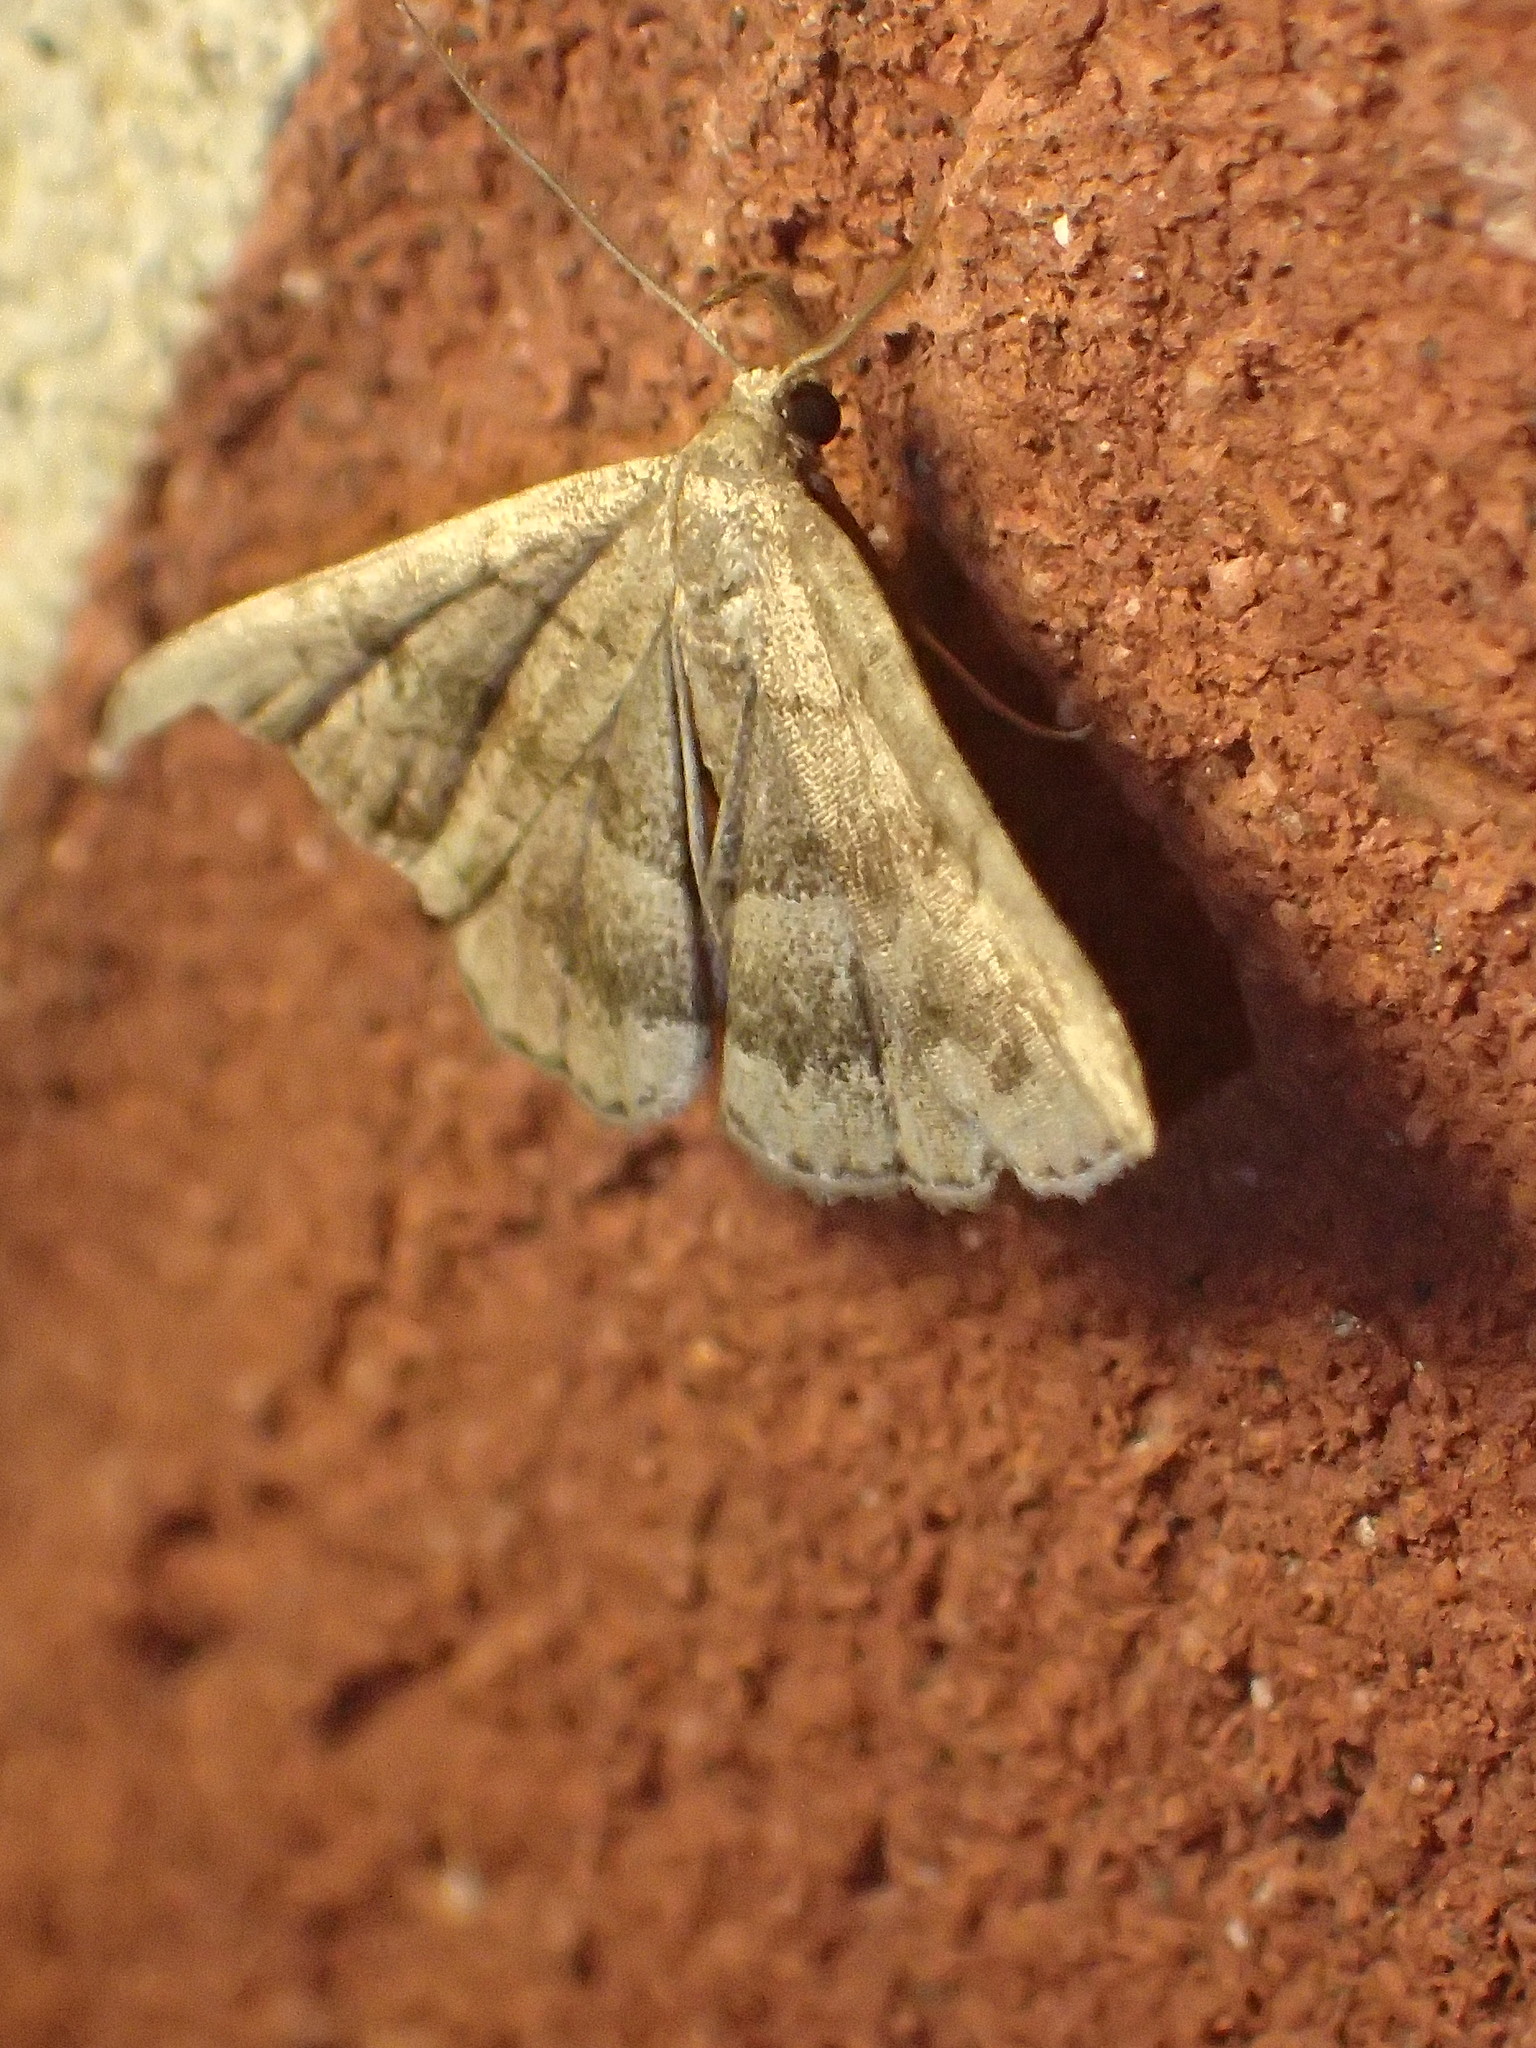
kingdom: Animalia
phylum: Arthropoda
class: Insecta
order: Lepidoptera
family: Erebidae
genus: Phalaenostola
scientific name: Phalaenostola larentioides
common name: Black-banded owlet
